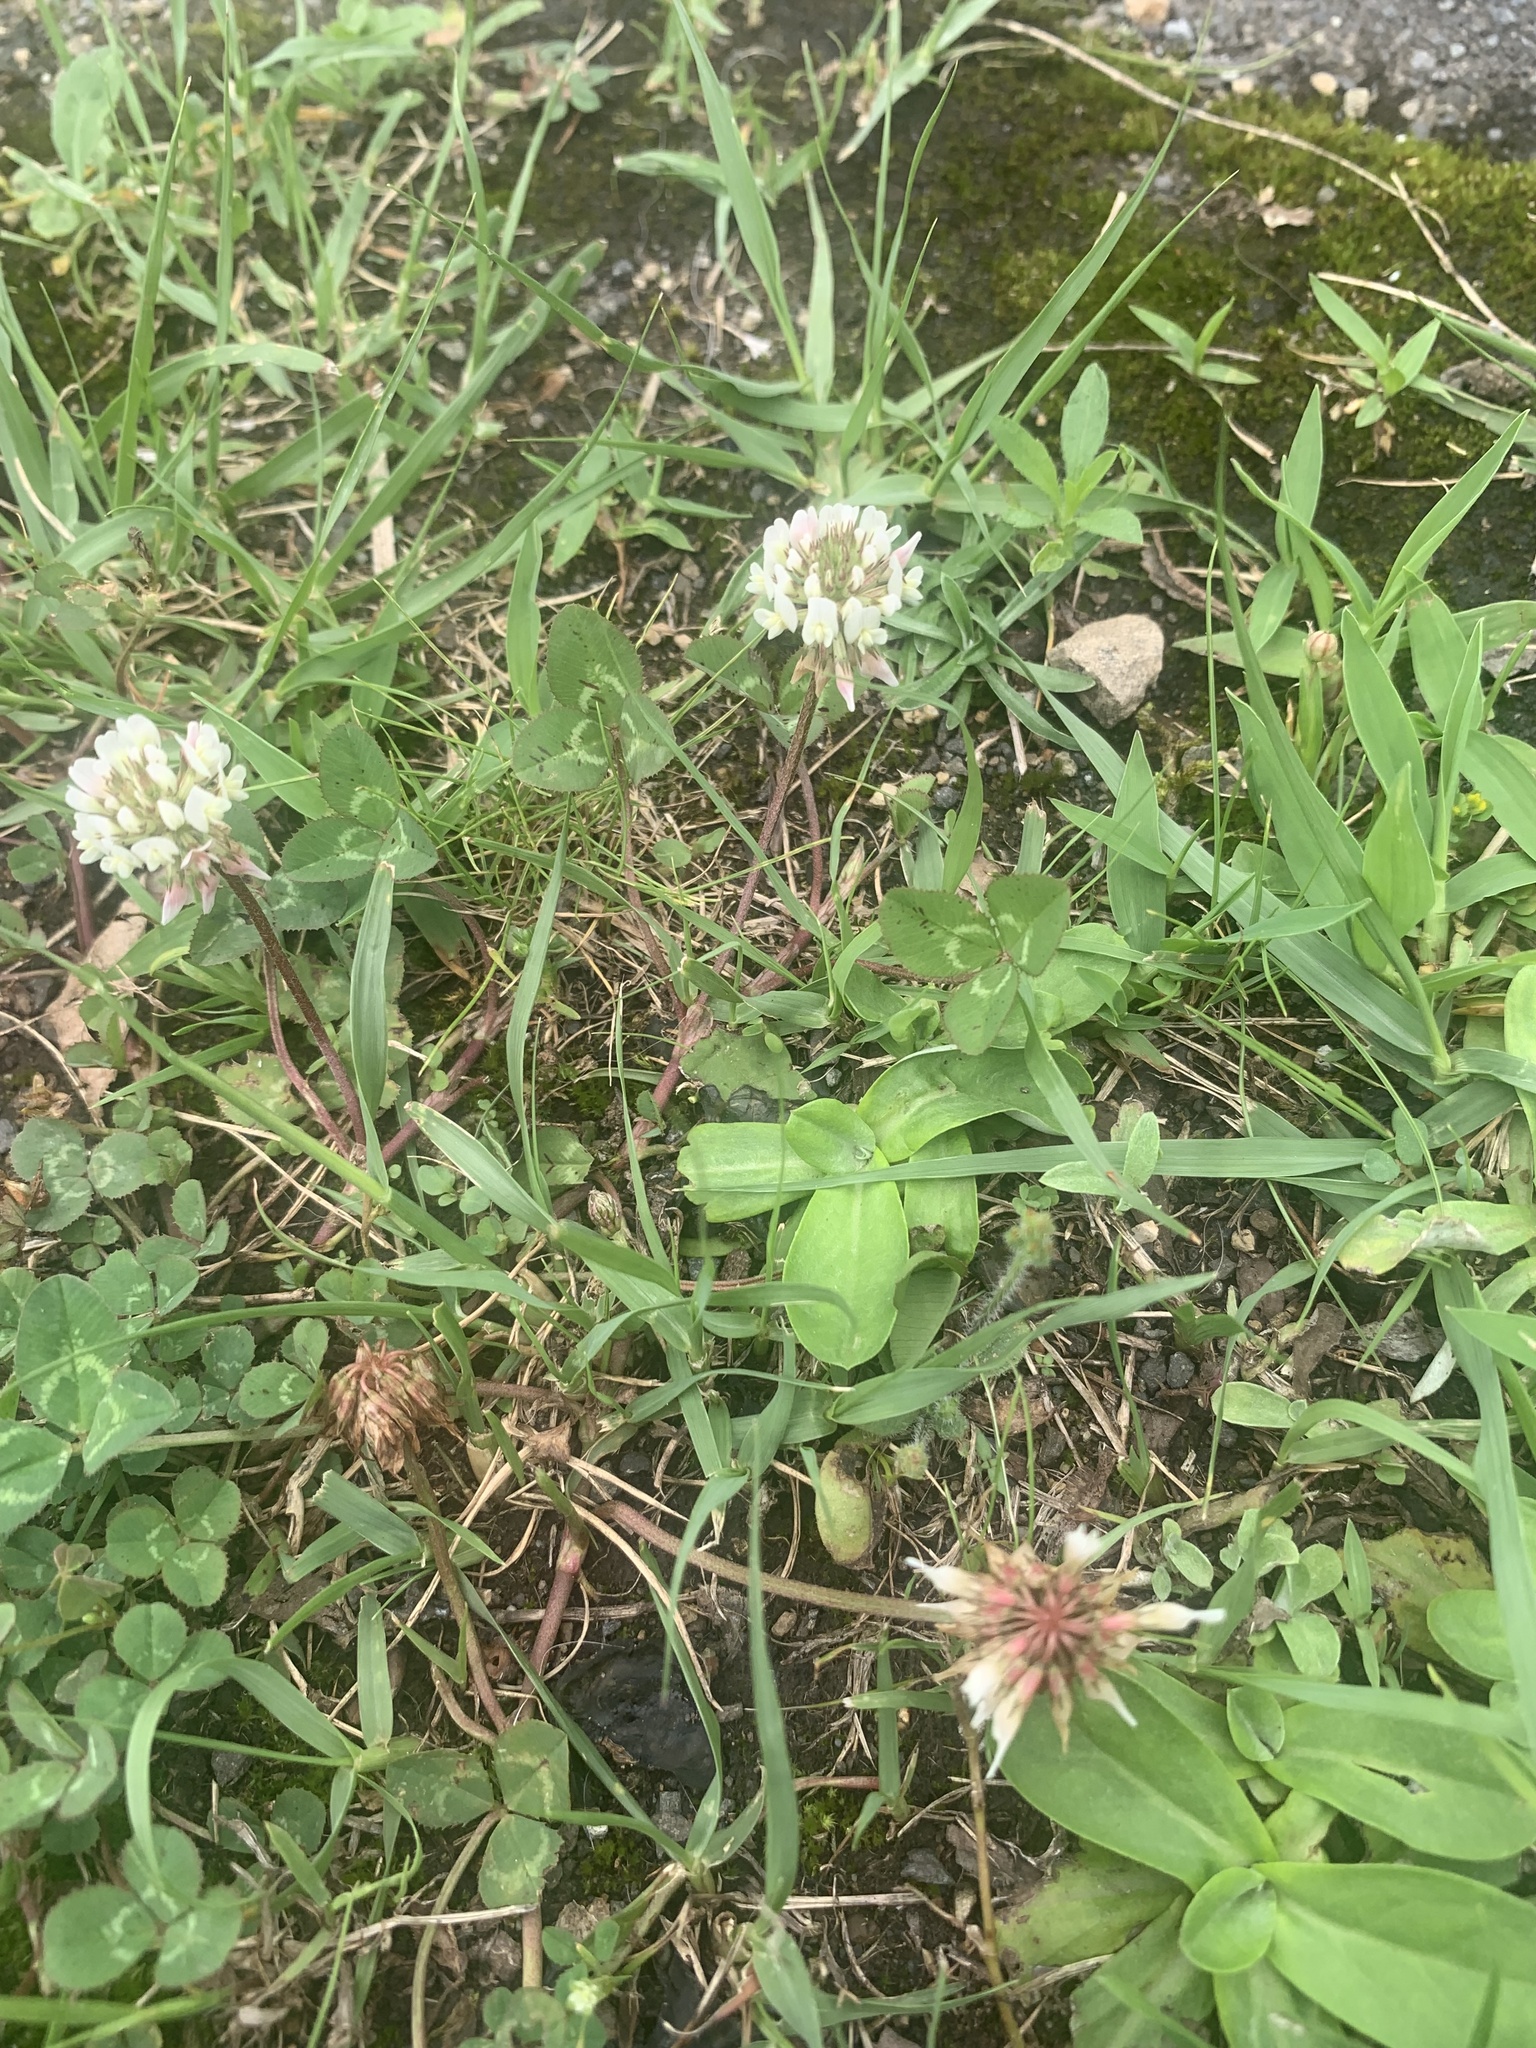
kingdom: Plantae
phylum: Tracheophyta
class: Magnoliopsida
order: Fabales
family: Fabaceae
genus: Trifolium
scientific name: Trifolium repens
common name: White clover
